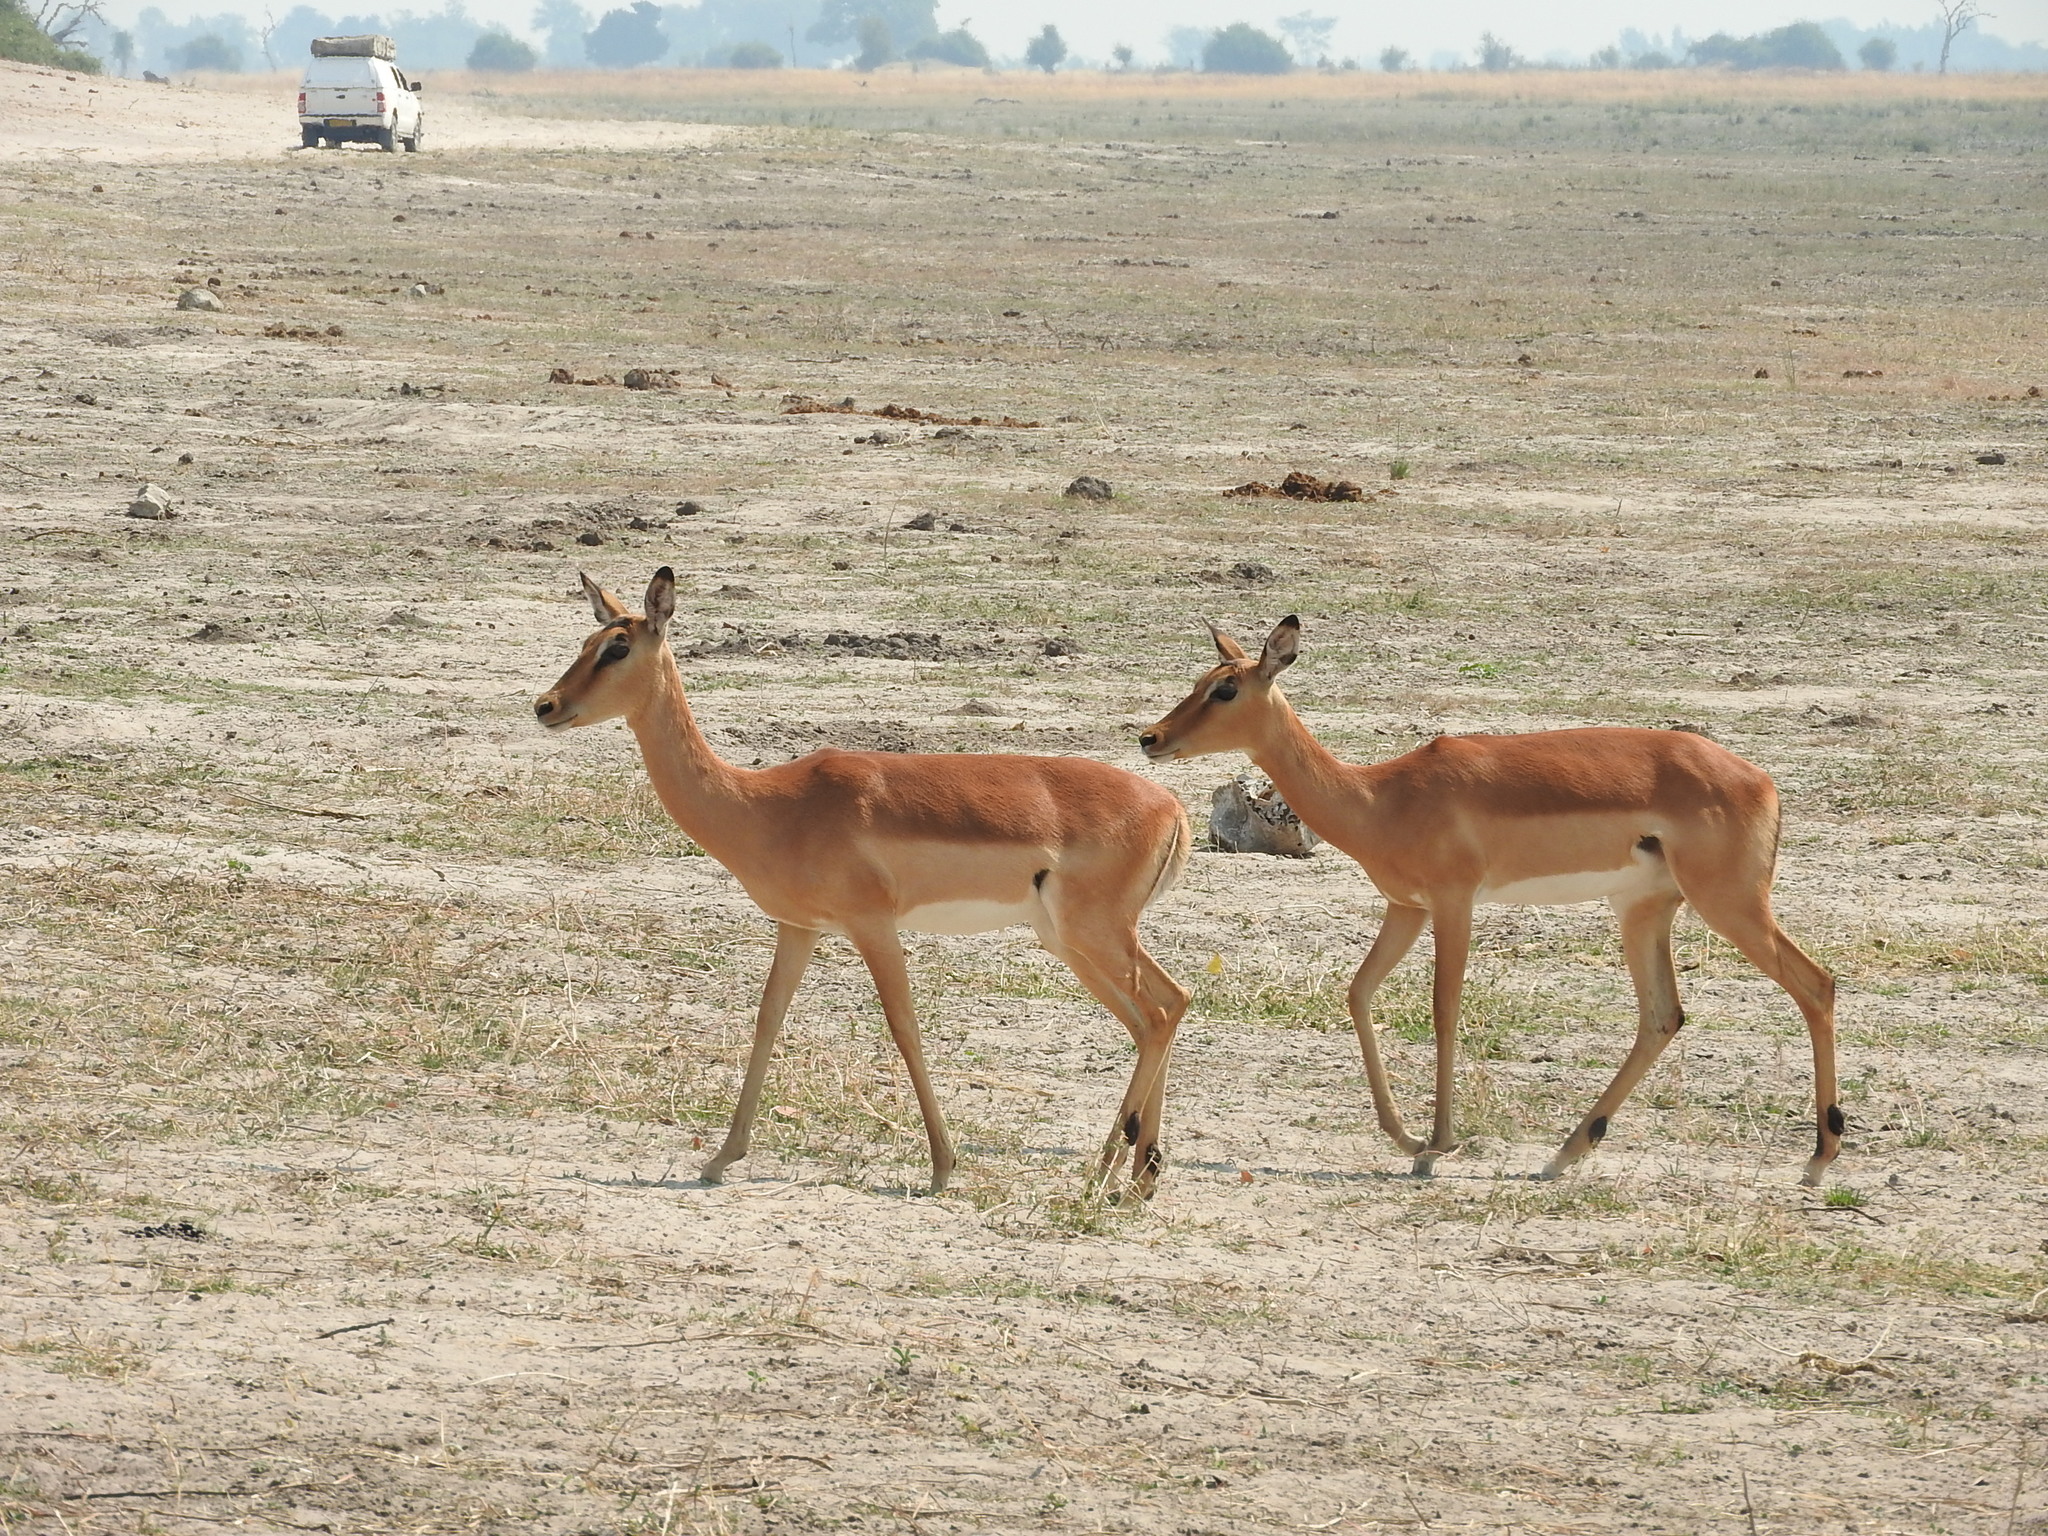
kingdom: Animalia
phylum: Chordata
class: Mammalia
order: Artiodactyla
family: Bovidae
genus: Aepyceros
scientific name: Aepyceros melampus
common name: Impala
